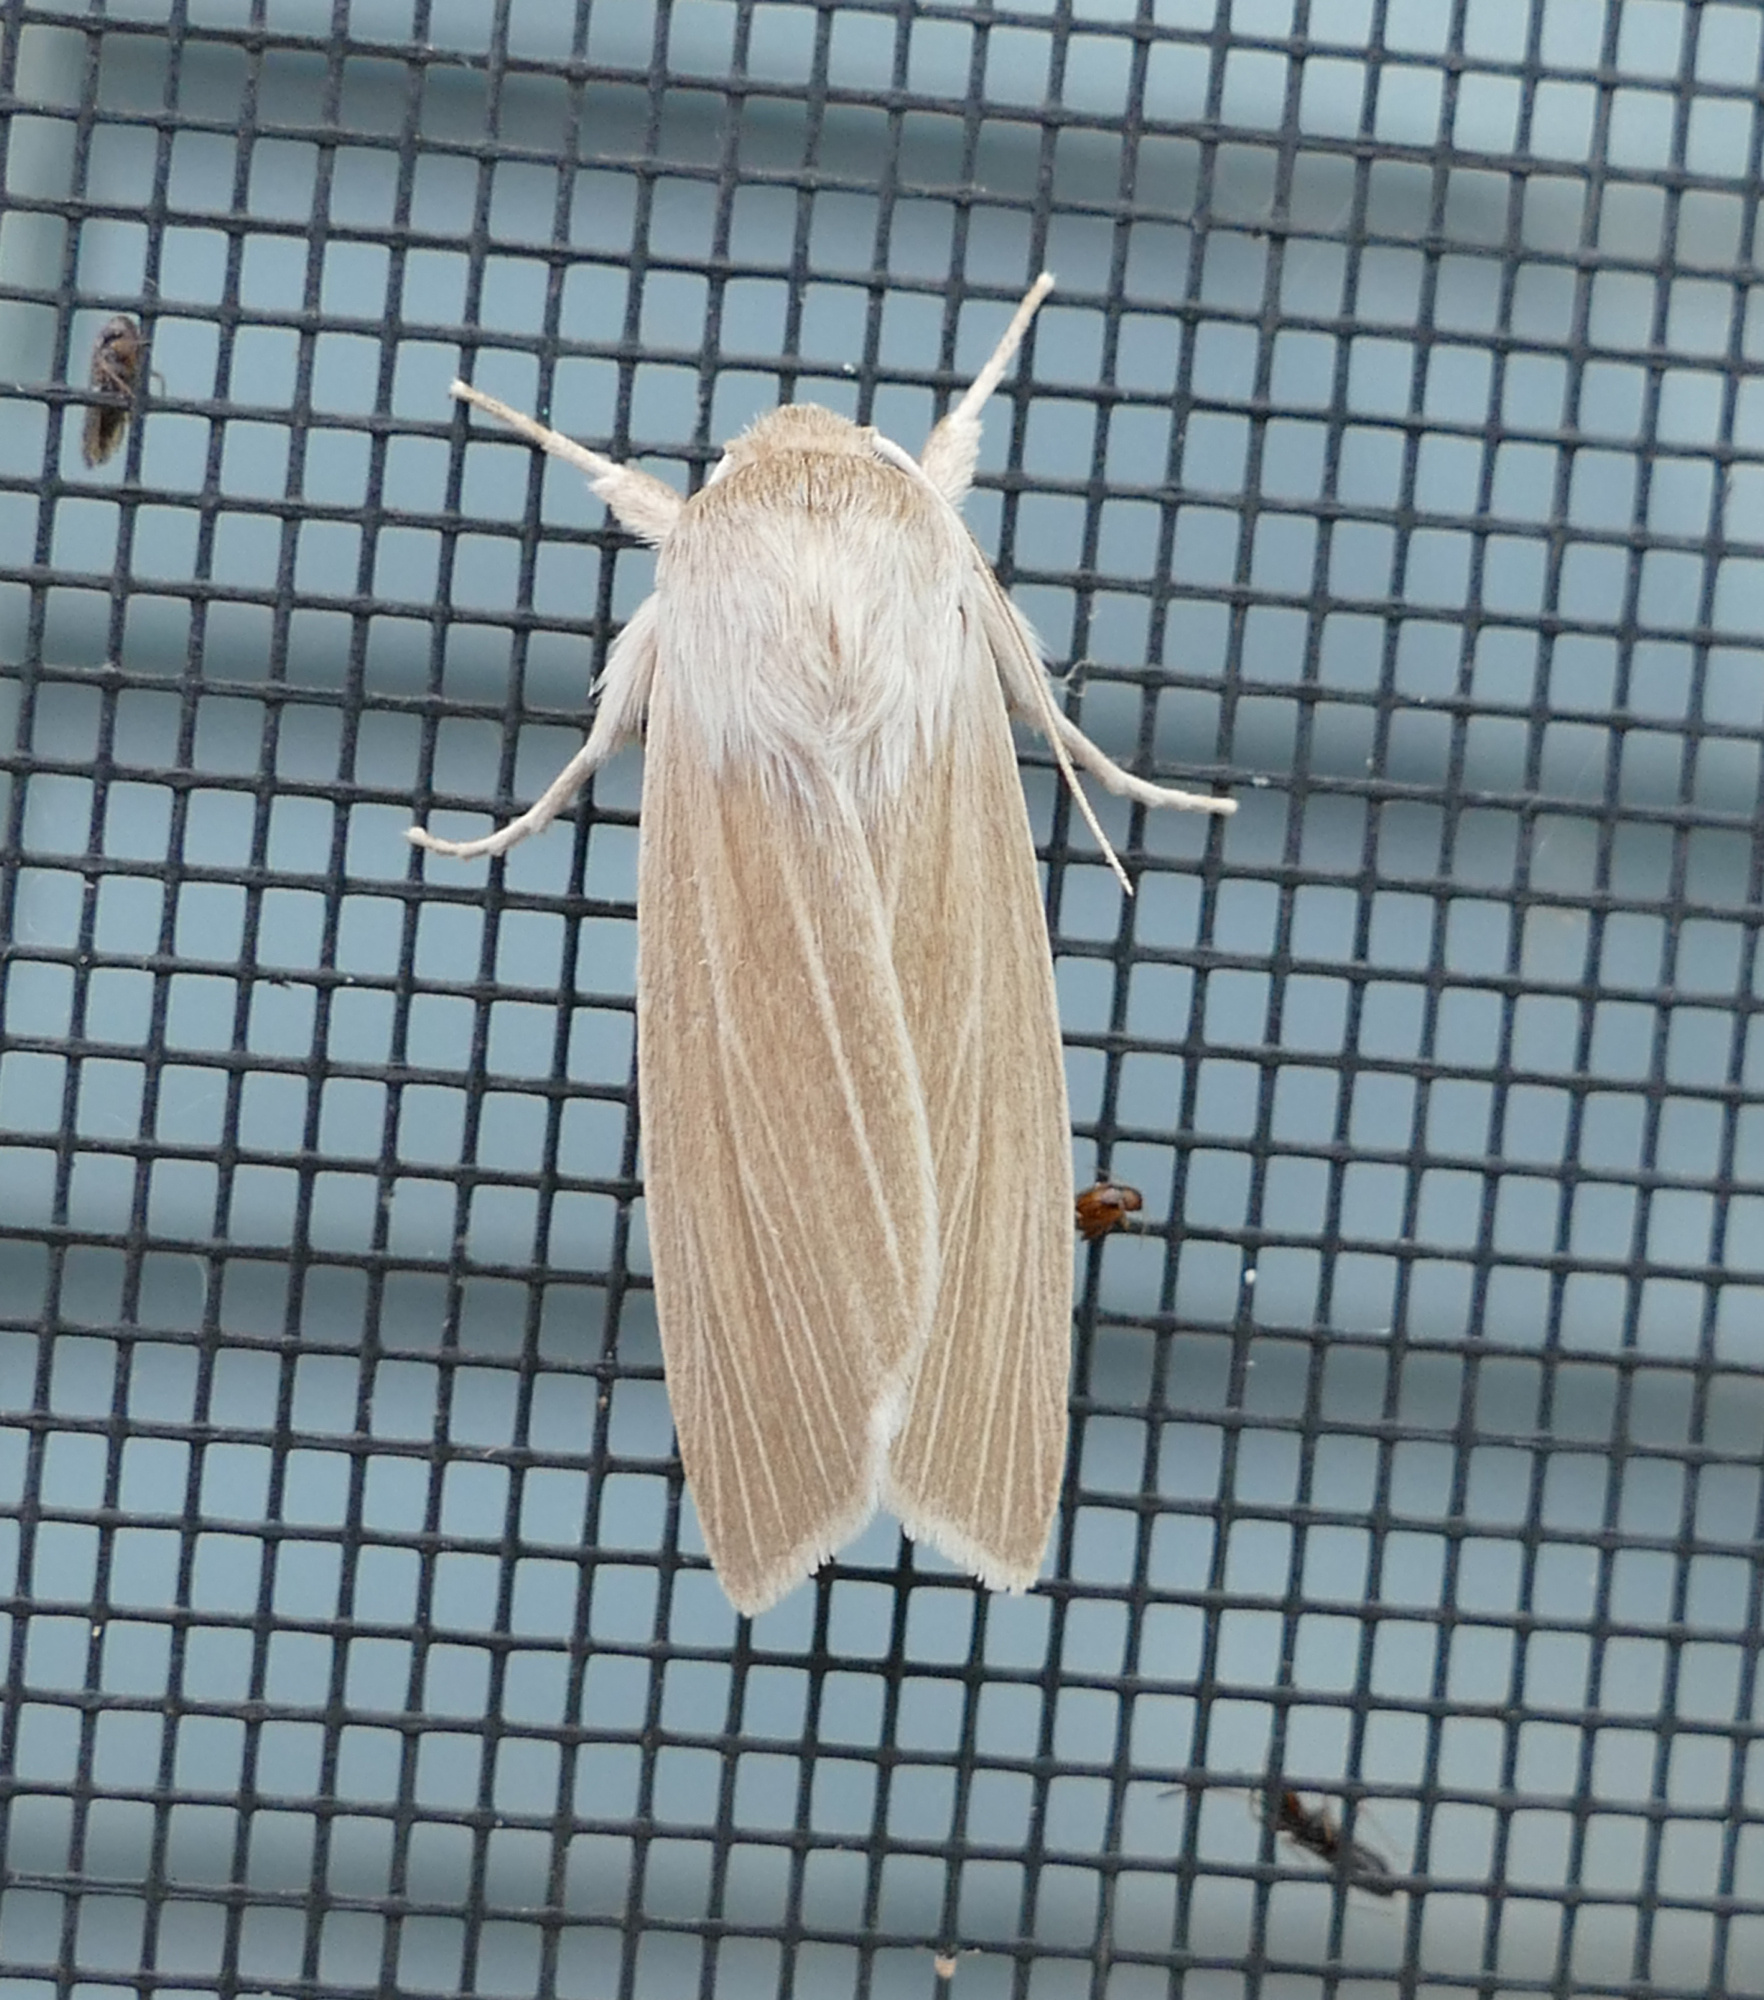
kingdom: Animalia
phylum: Arthropoda
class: Insecta
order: Lepidoptera
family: Noctuidae
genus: Acronicta
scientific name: Acronicta insularis
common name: Henry's marsh moth
